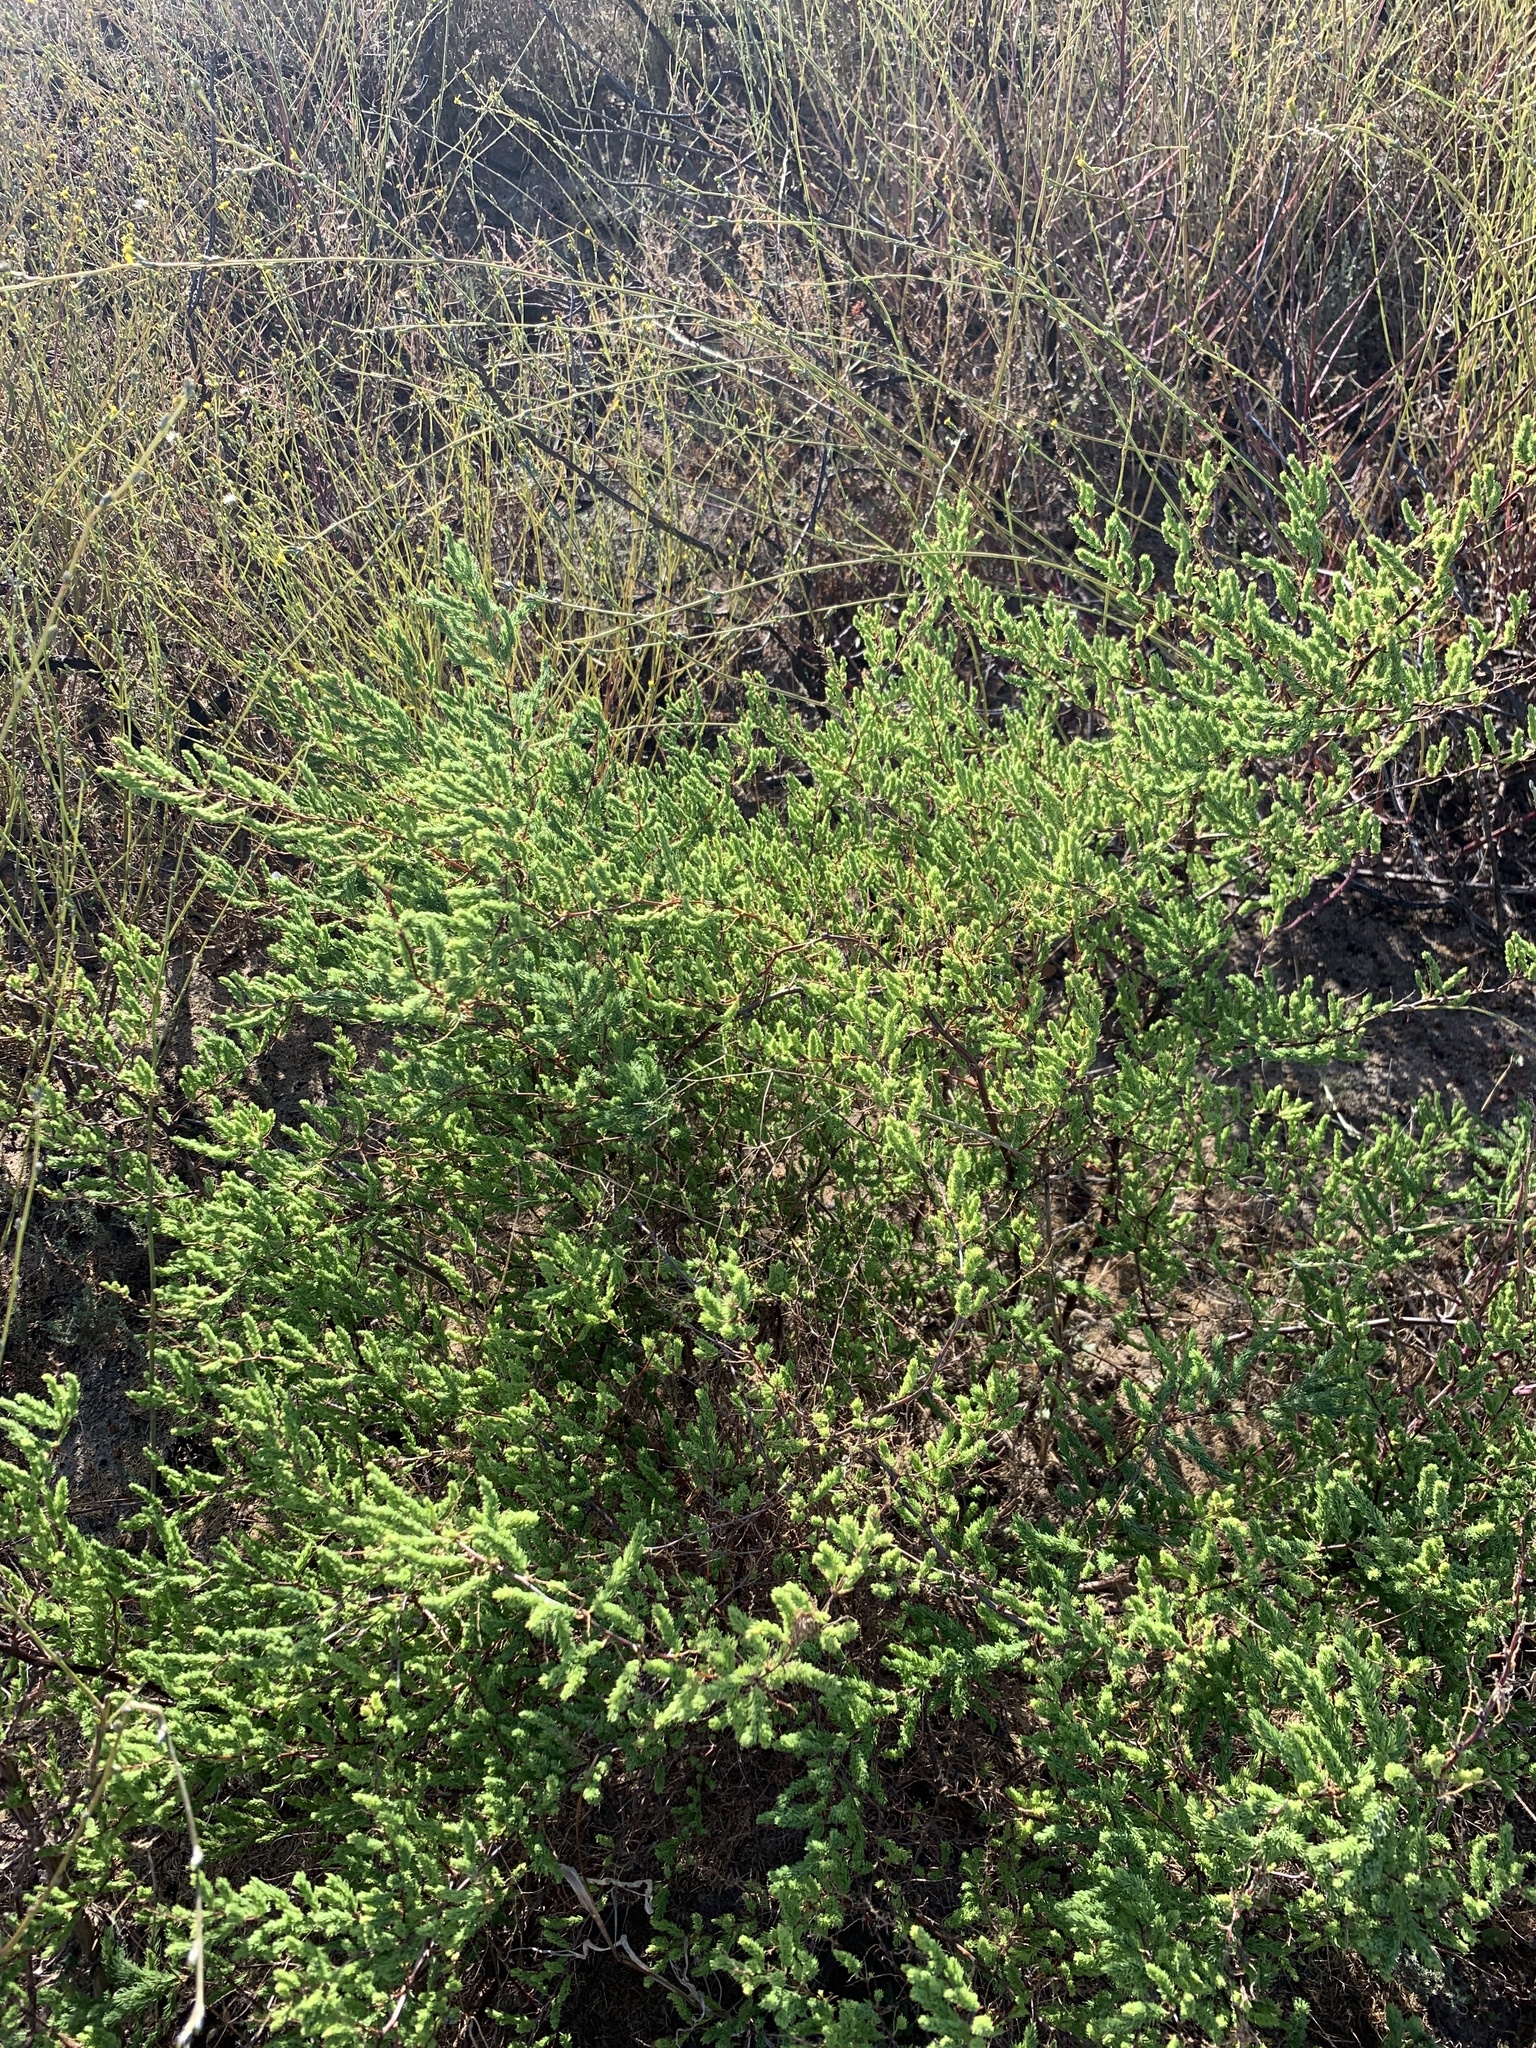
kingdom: Plantae
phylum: Tracheophyta
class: Liliopsida
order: Asparagales
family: Asparagaceae
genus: Asparagus
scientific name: Asparagus rubicundus
